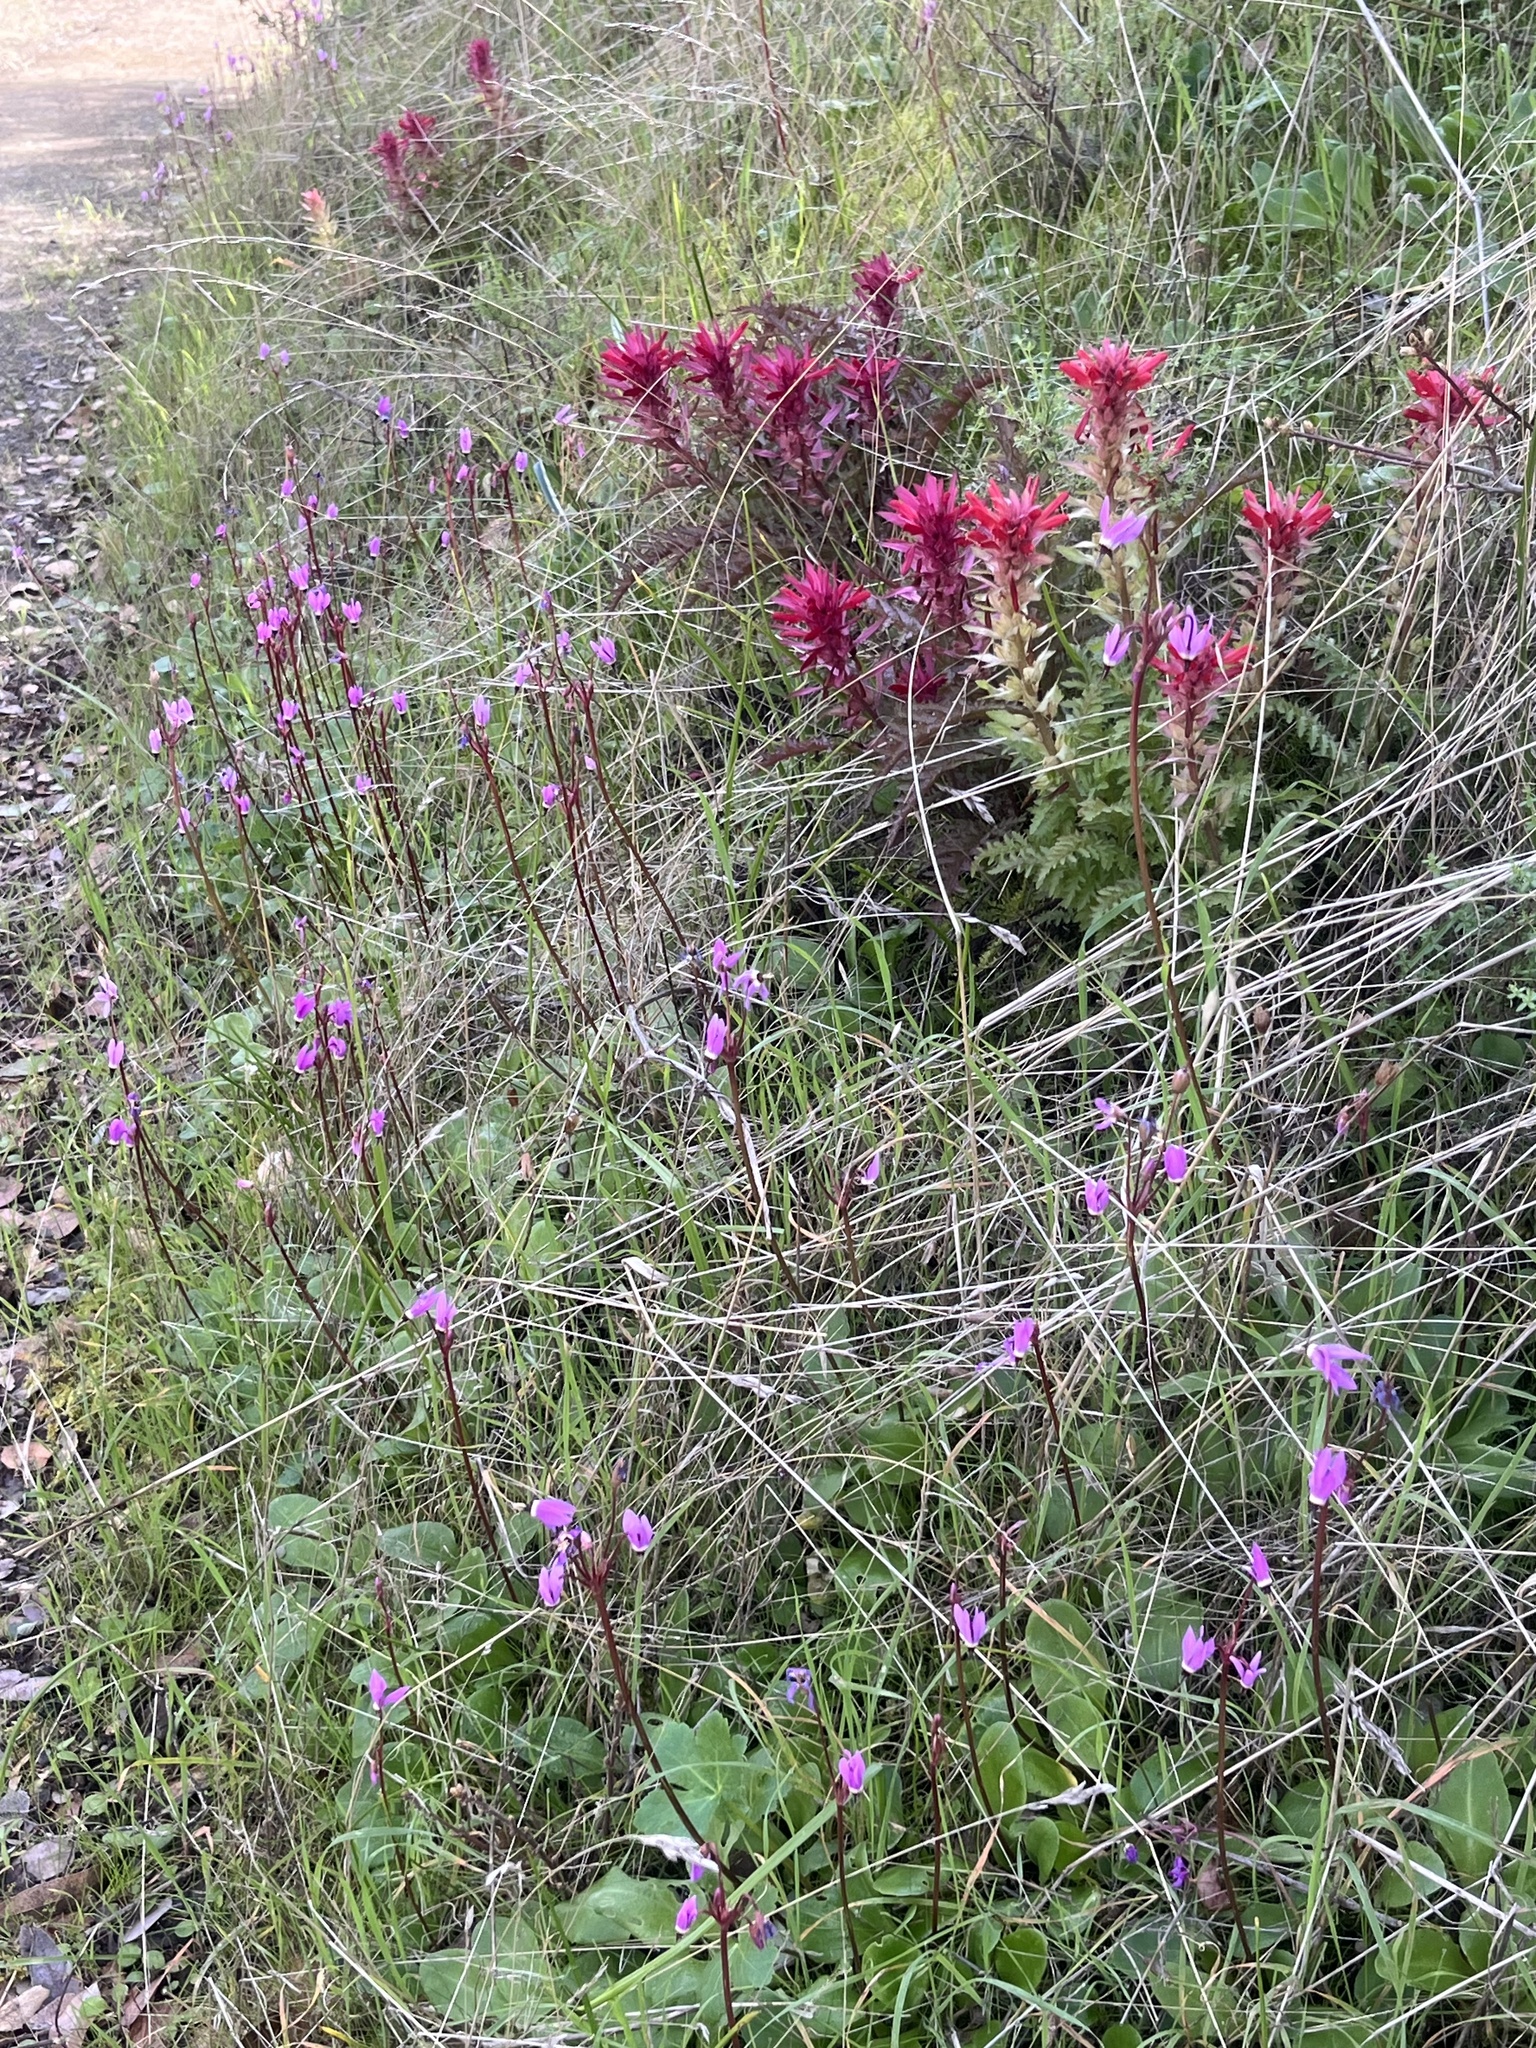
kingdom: Plantae
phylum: Tracheophyta
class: Magnoliopsida
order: Lamiales
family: Orobanchaceae
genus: Pedicularis
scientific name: Pedicularis densiflora
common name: Indian warrior
